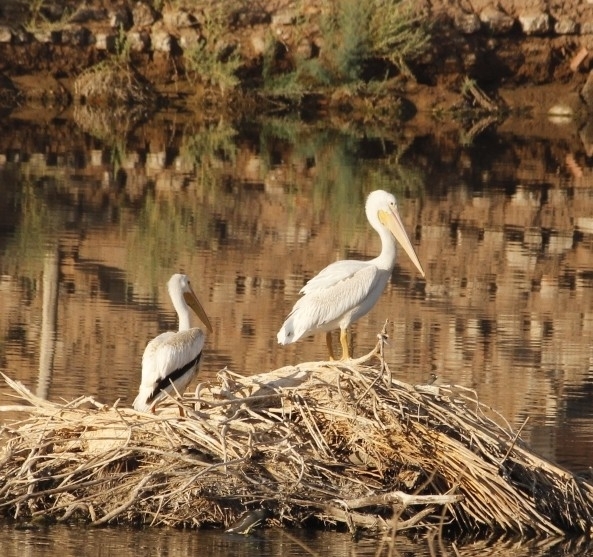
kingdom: Animalia
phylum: Chordata
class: Aves
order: Pelecaniformes
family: Pelecanidae
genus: Pelecanus
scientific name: Pelecanus erythrorhynchos
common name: American white pelican
